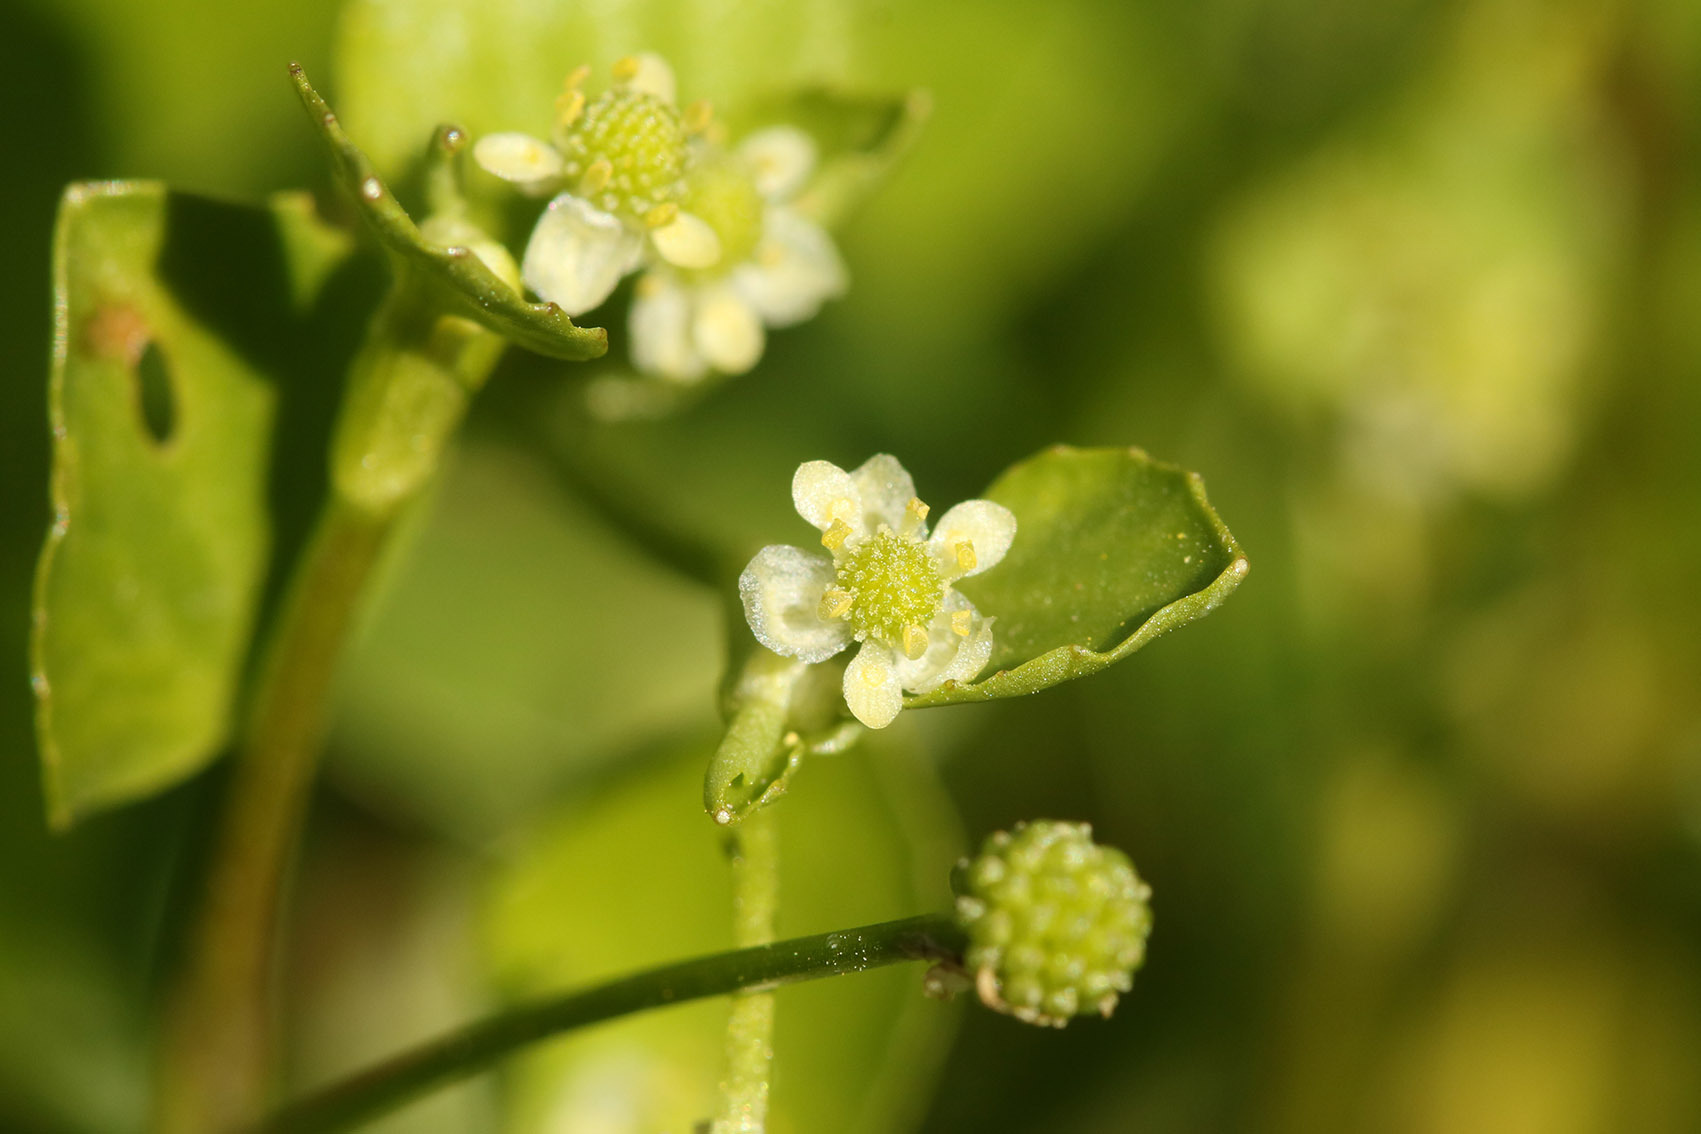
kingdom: Plantae
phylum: Tracheophyta
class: Magnoliopsida
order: Ranunculales
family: Ranunculaceae
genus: Ranunculus
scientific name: Ranunculus bonariensis
